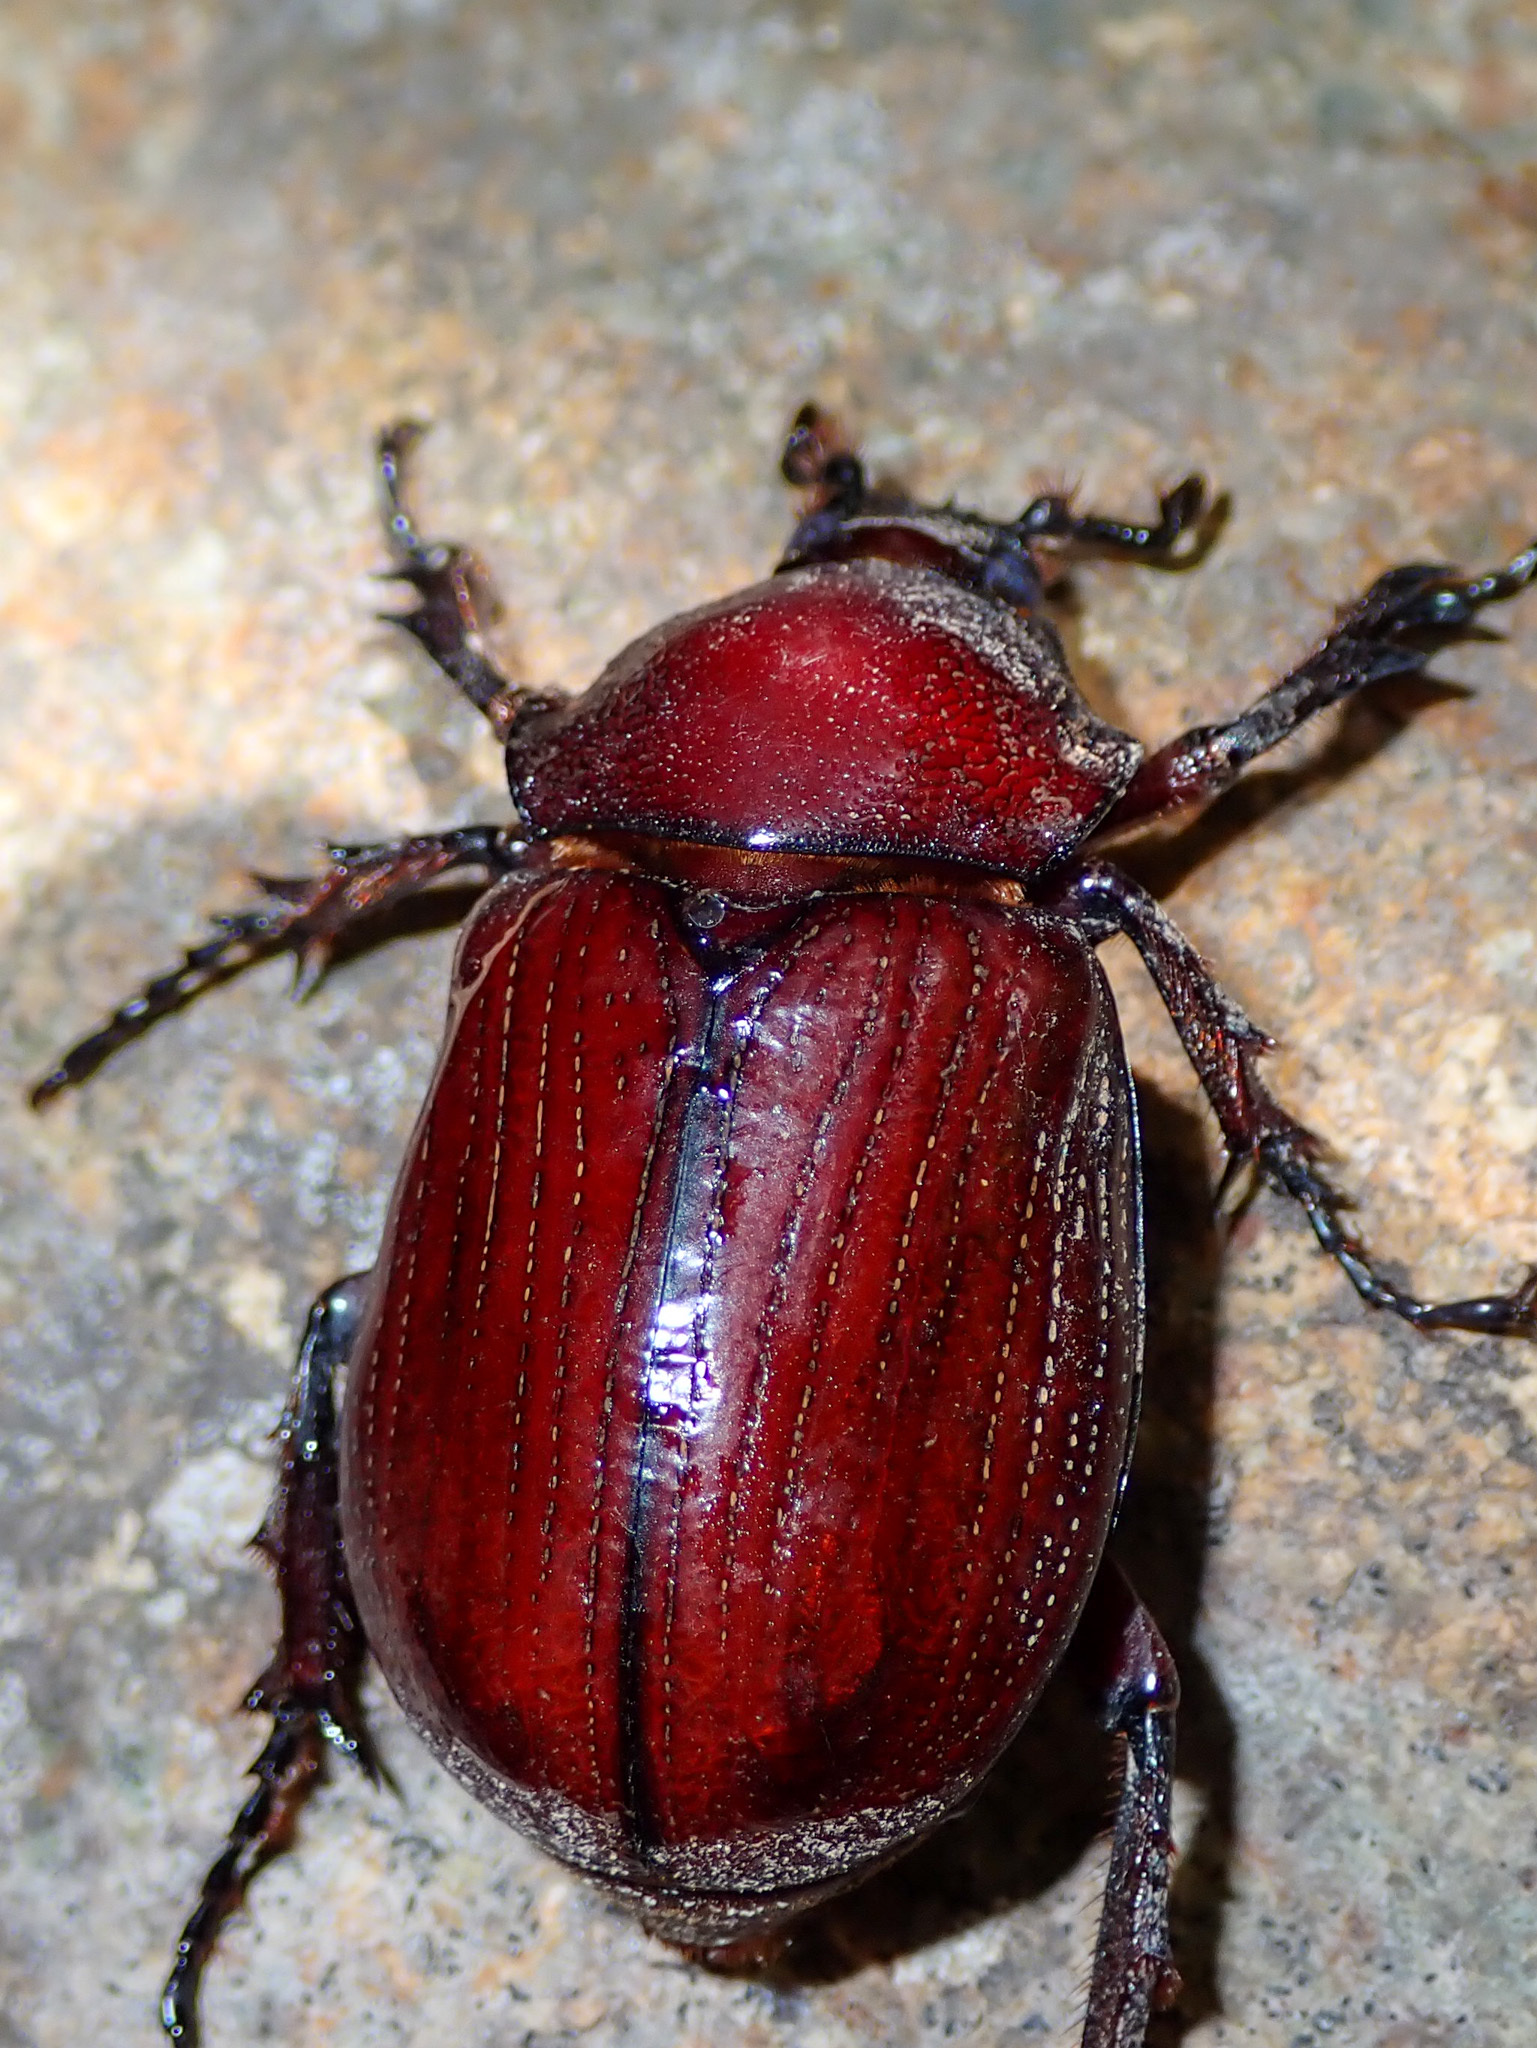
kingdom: Animalia
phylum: Arthropoda
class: Insecta
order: Coleoptera
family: Scarabaeidae
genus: Coelosis
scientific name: Coelosis biloba
